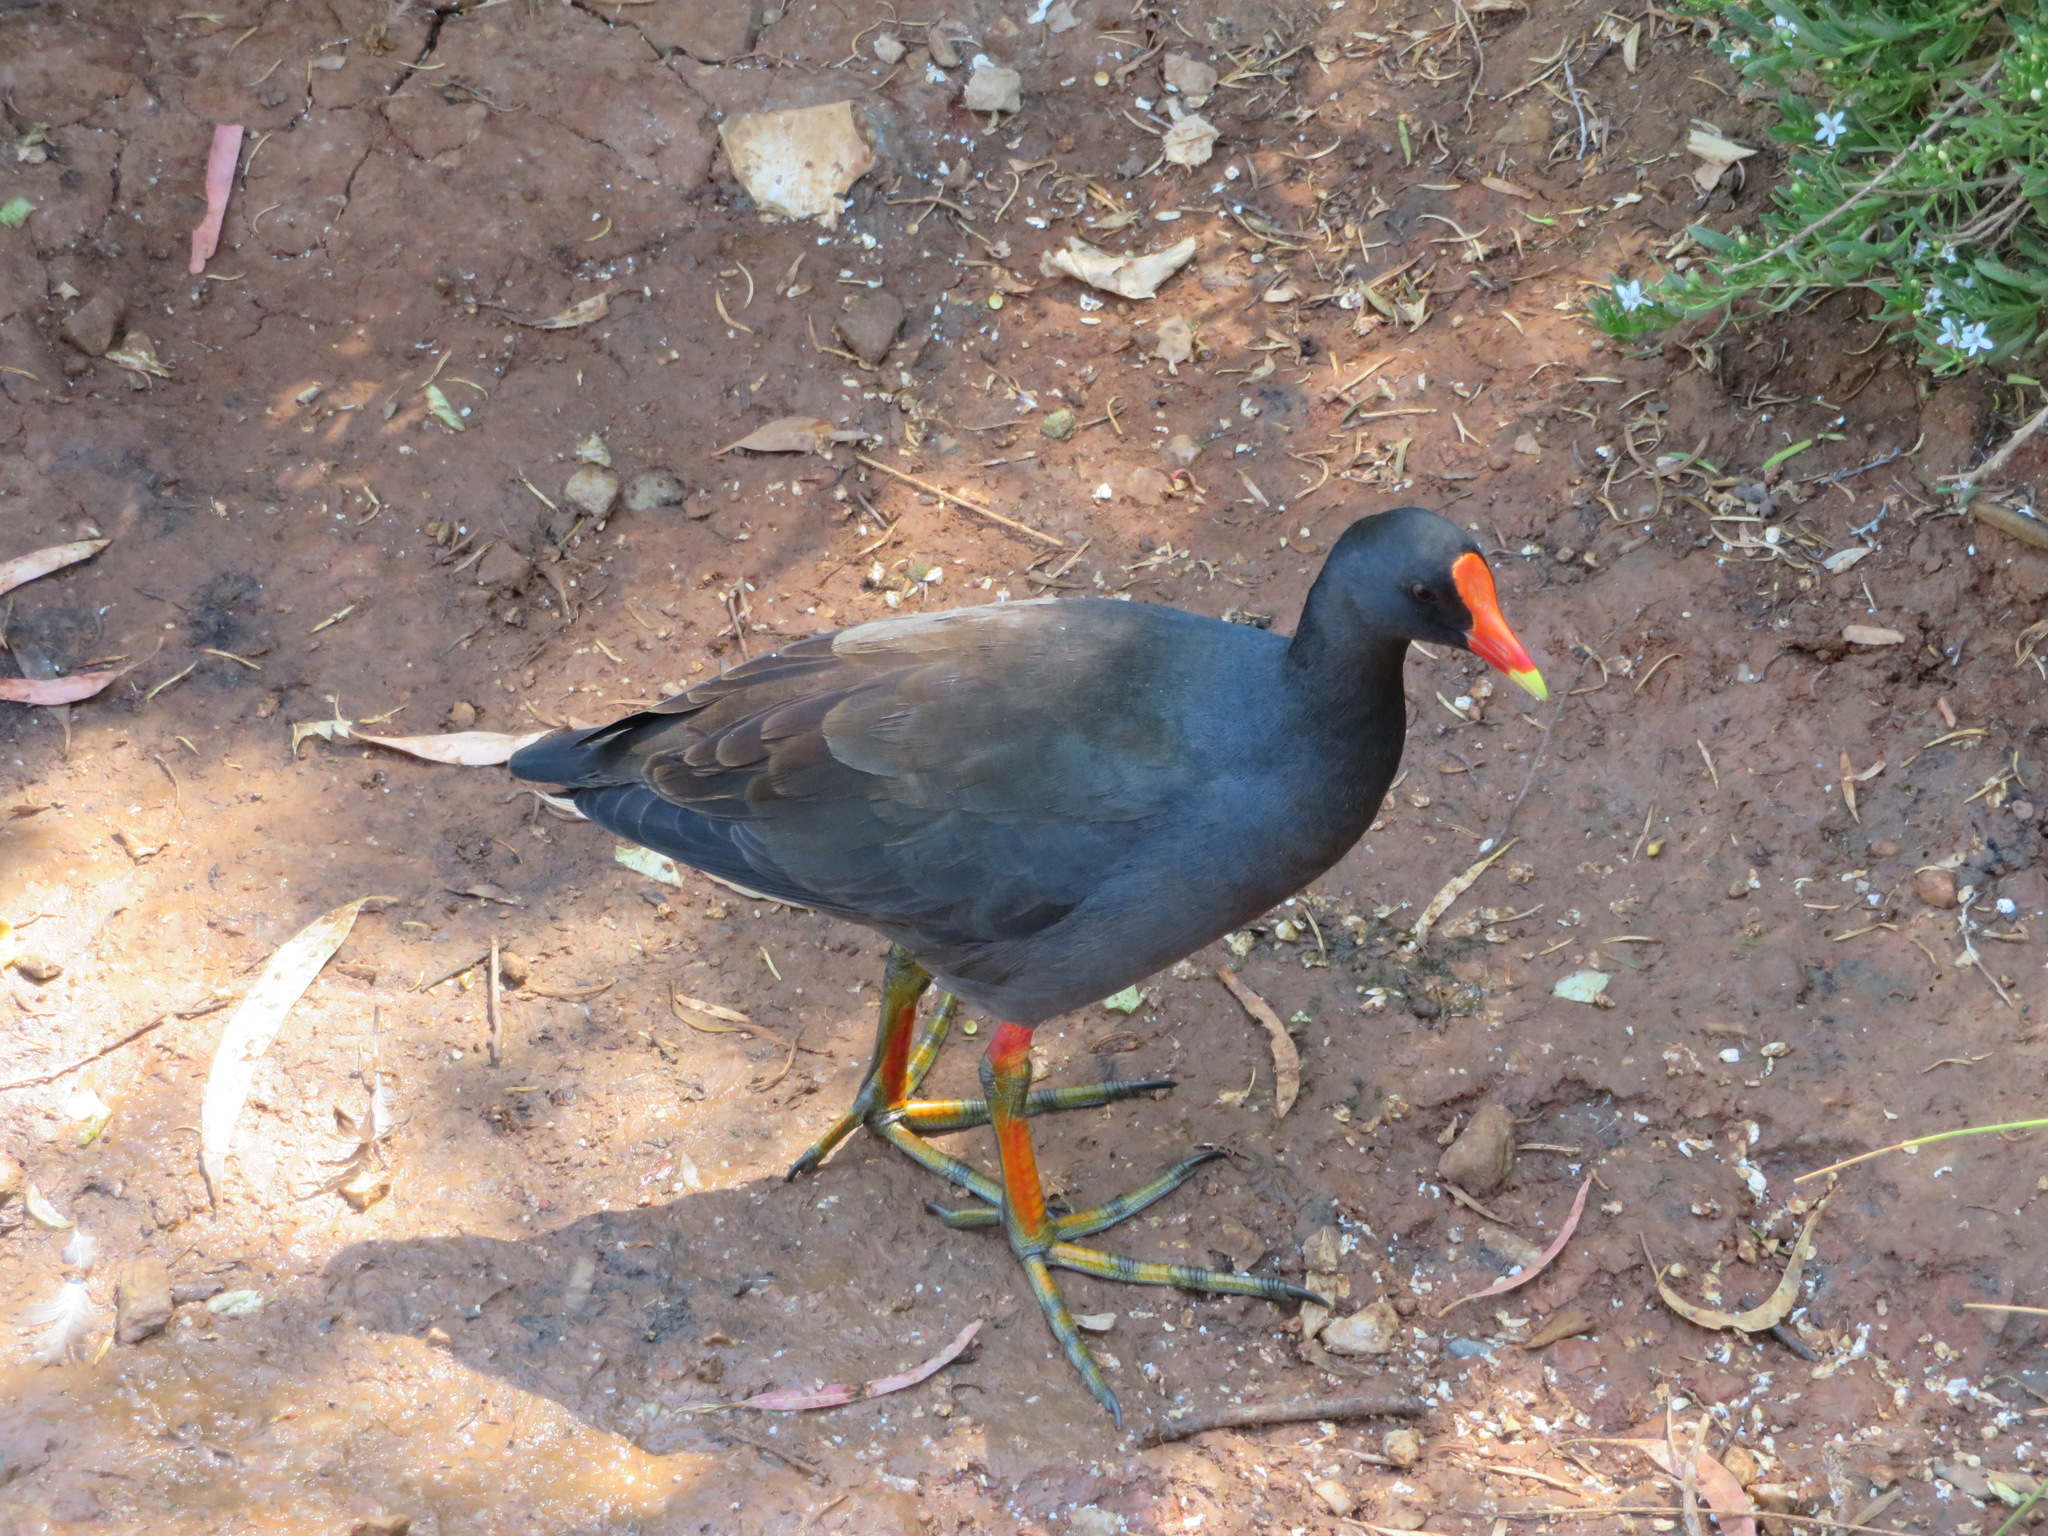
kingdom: Animalia
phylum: Chordata
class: Aves
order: Gruiformes
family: Rallidae
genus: Gallinula
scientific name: Gallinula tenebrosa
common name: Dusky moorhen
